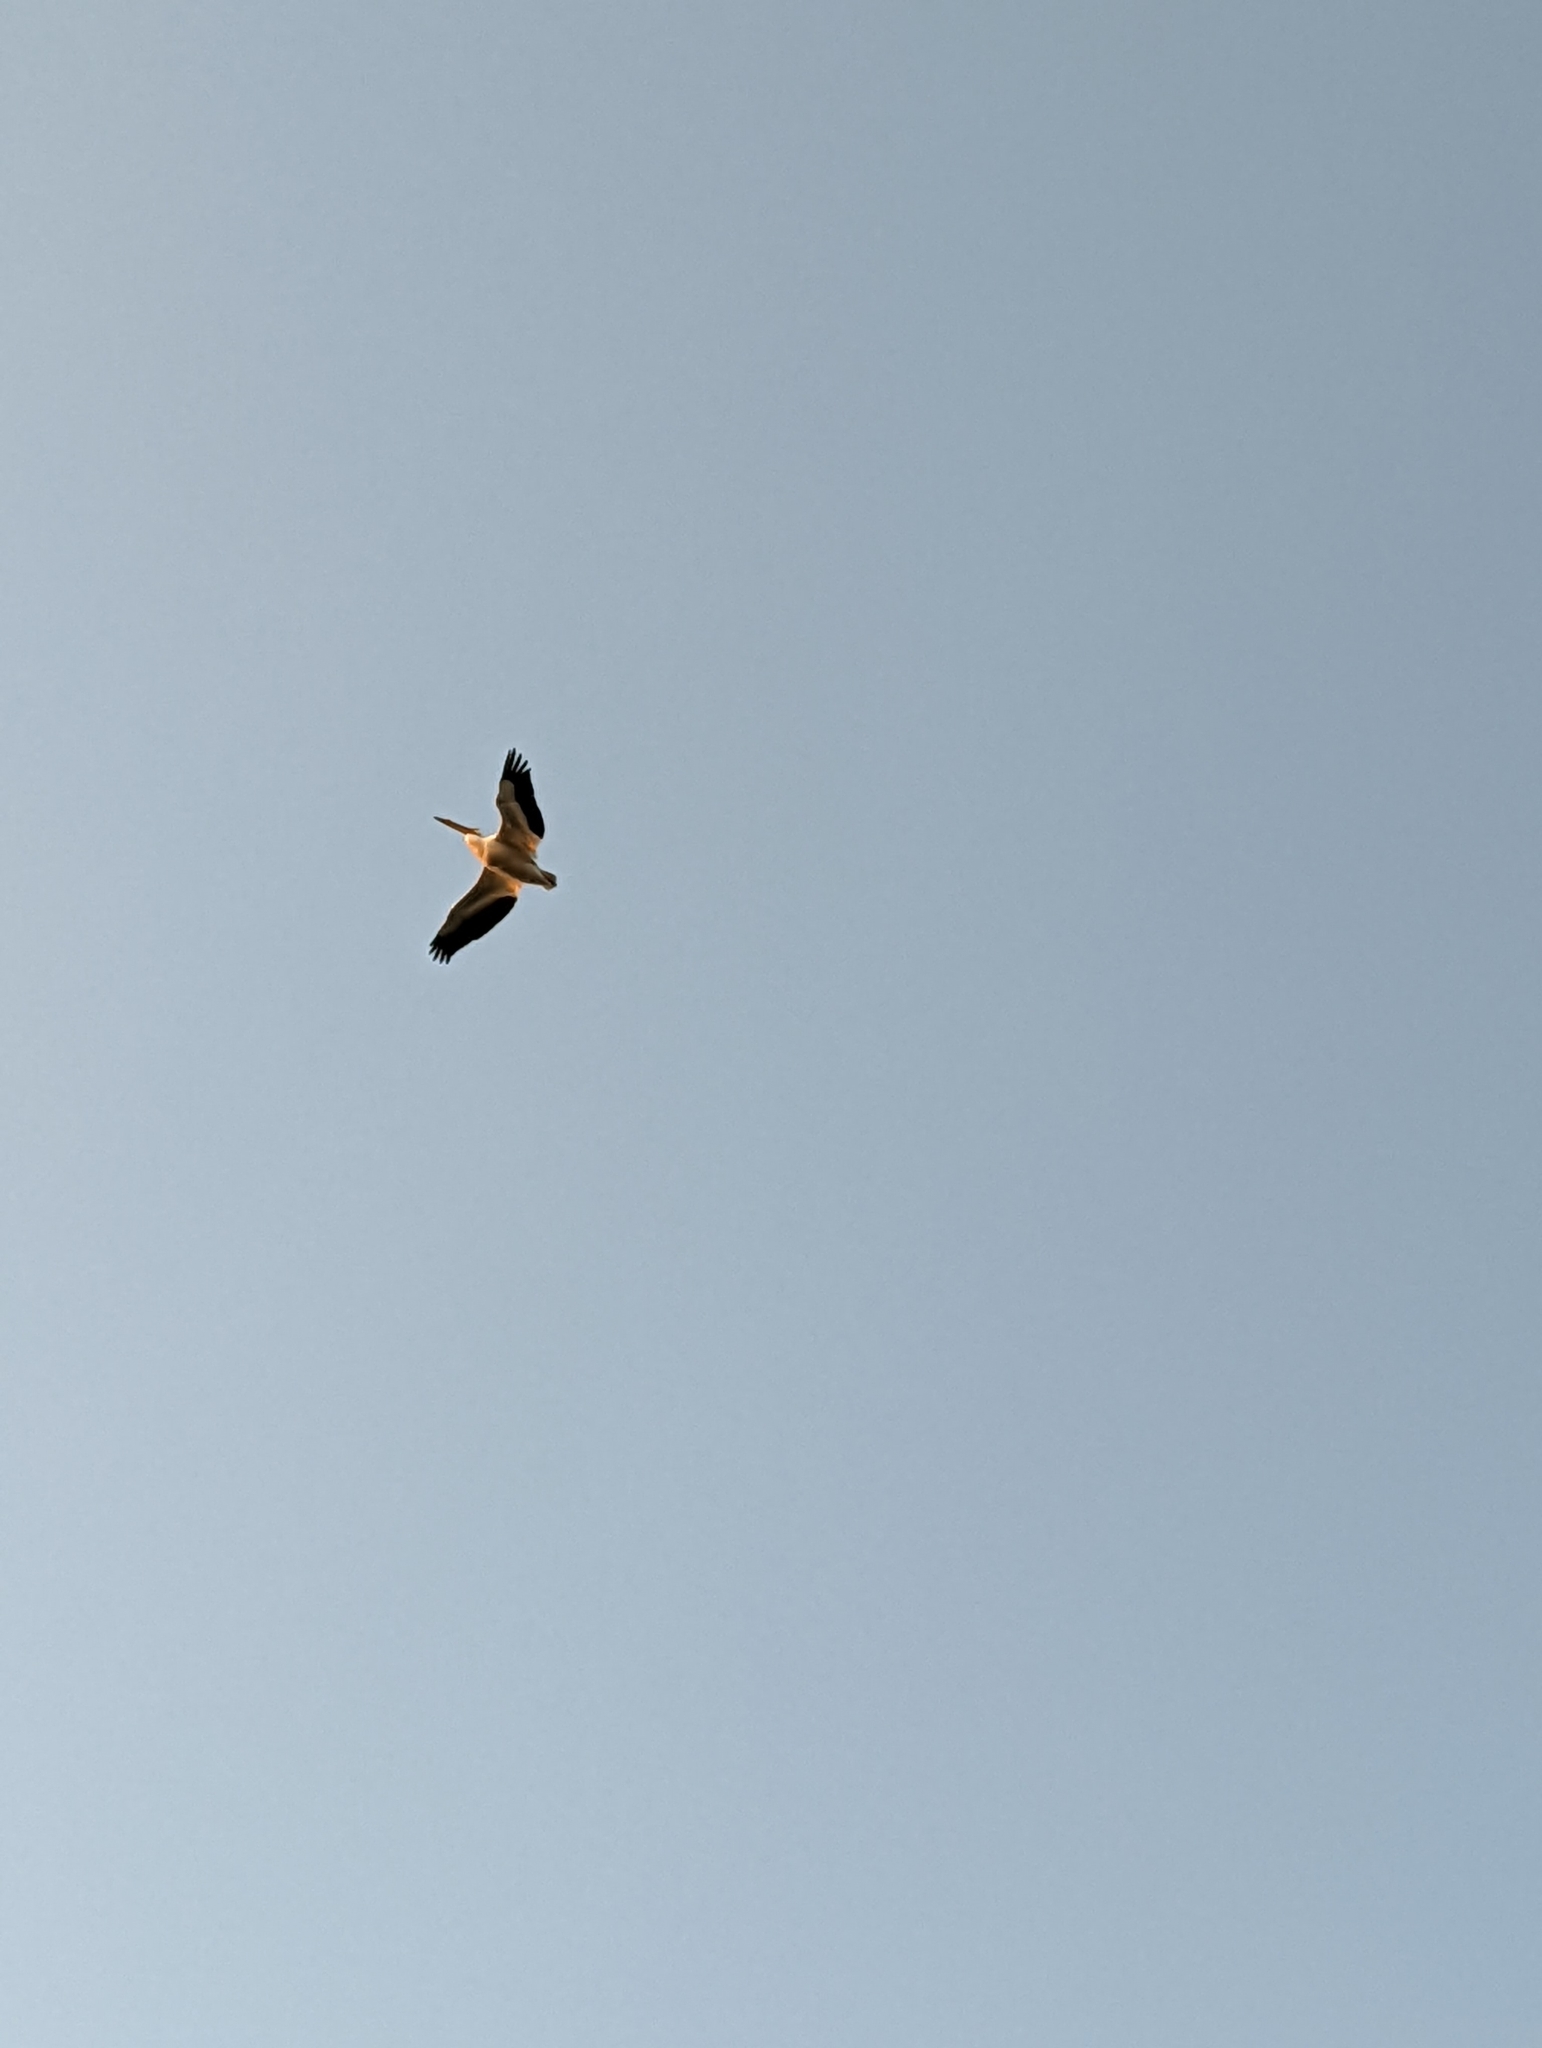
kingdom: Animalia
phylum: Chordata
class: Aves
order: Pelecaniformes
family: Pelecanidae
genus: Pelecanus
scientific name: Pelecanus erythrorhynchos
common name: American white pelican
